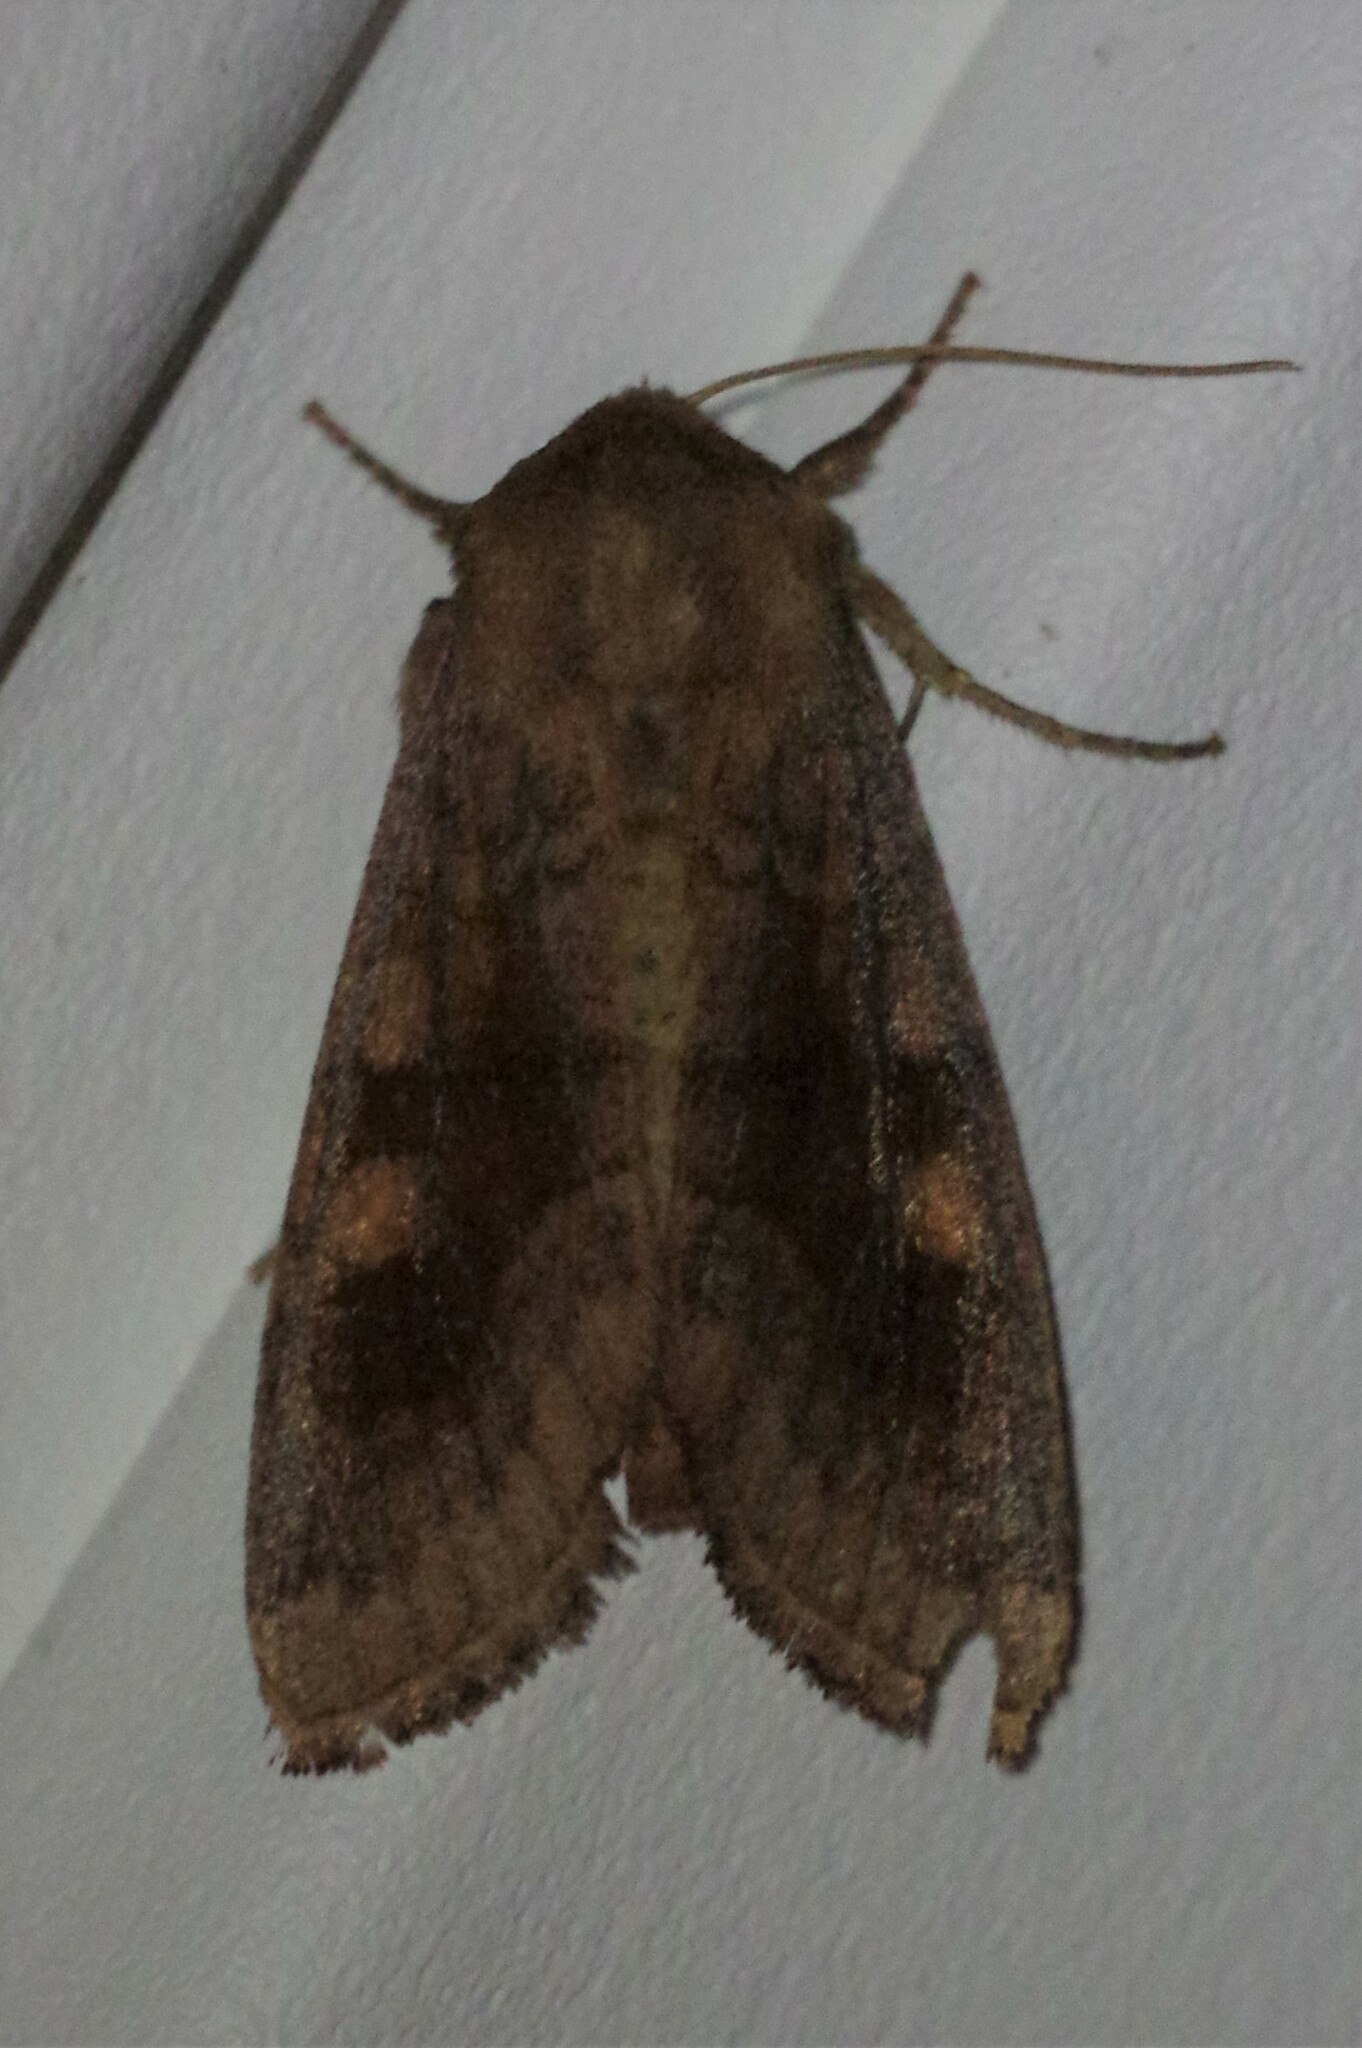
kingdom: Animalia
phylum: Arthropoda
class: Insecta
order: Lepidoptera
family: Noctuidae
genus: Nephelodes
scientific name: Nephelodes minians
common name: Bronzed cutworm
